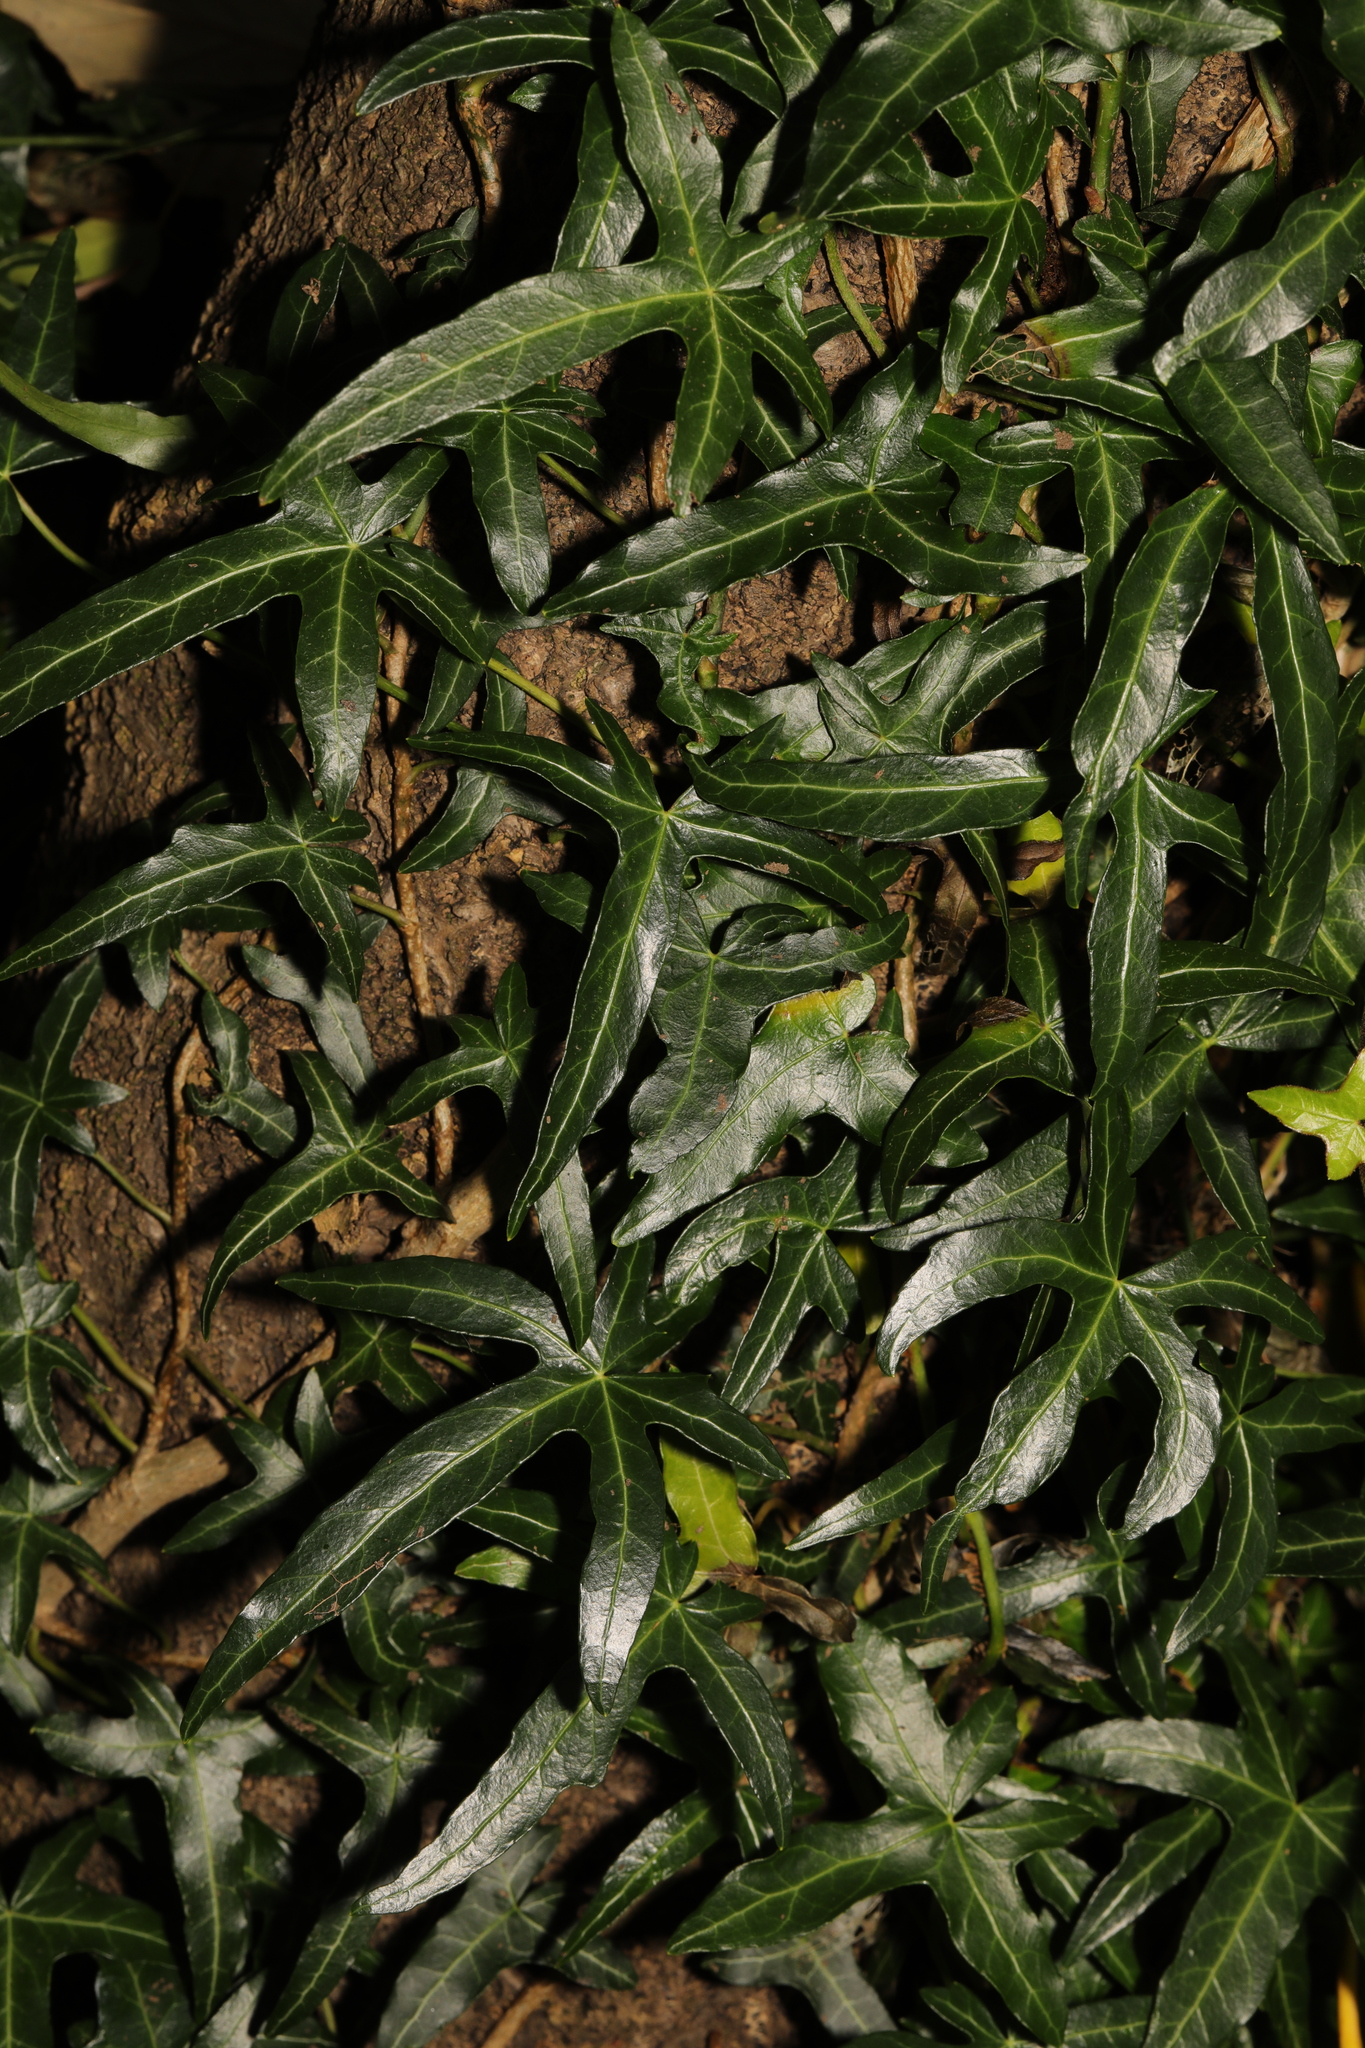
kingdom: Plantae
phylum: Tracheophyta
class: Magnoliopsida
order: Apiales
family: Araliaceae
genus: Hedera
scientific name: Hedera helix
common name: Ivy
